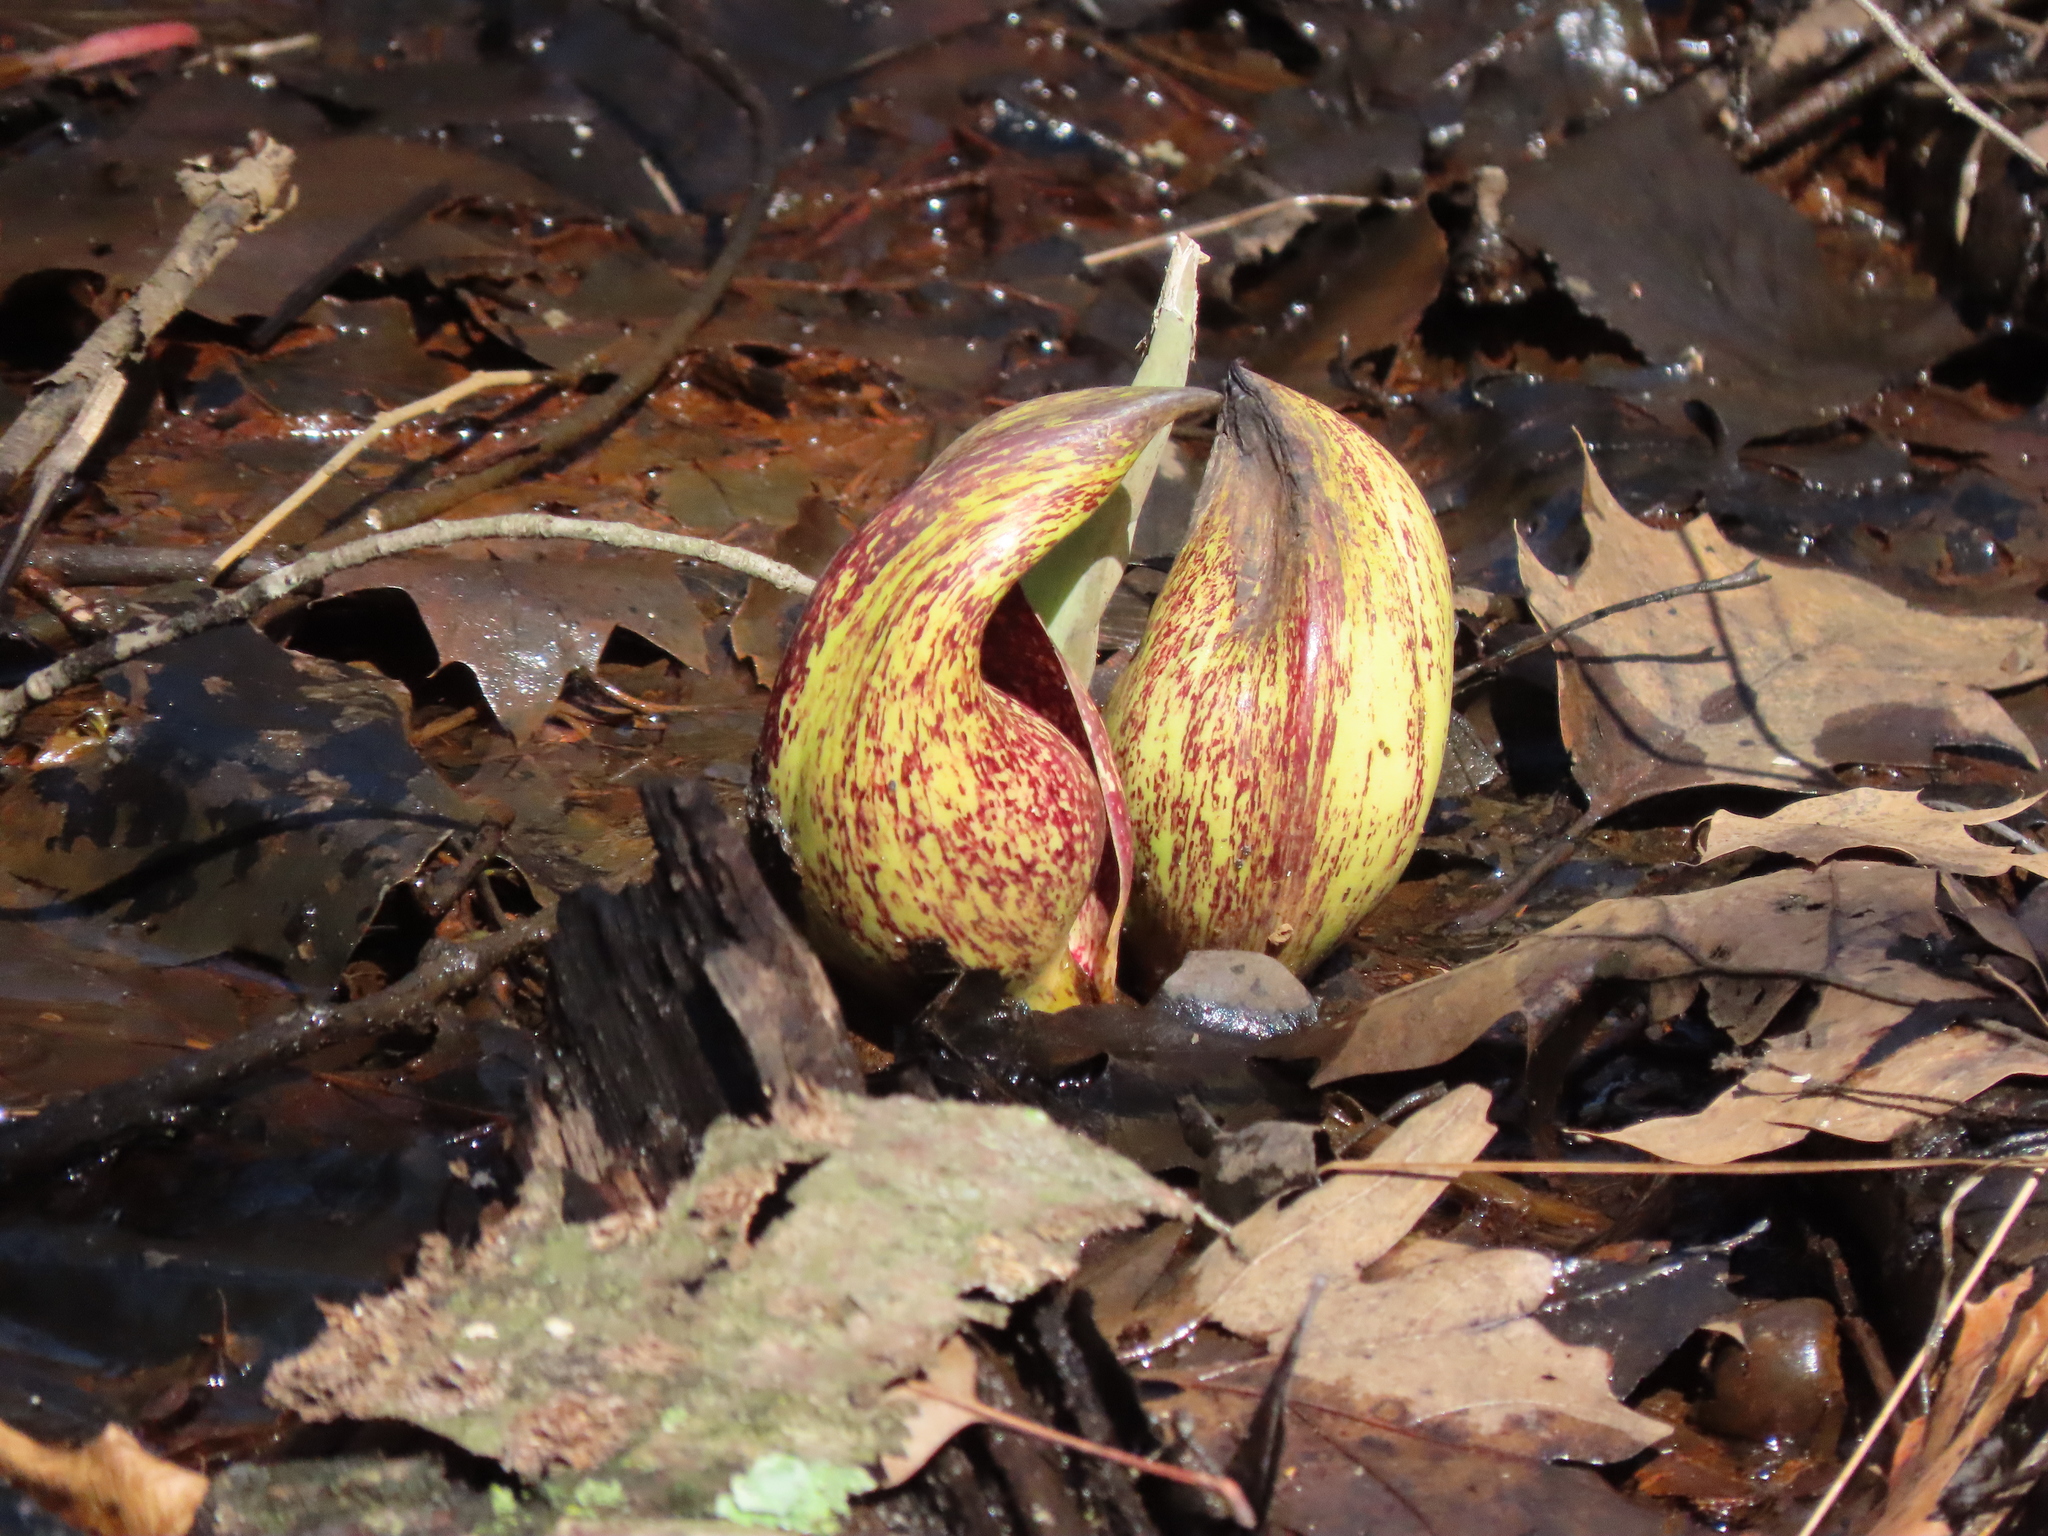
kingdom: Plantae
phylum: Tracheophyta
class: Liliopsida
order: Alismatales
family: Araceae
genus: Symplocarpus
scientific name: Symplocarpus foetidus
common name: Eastern skunk cabbage
